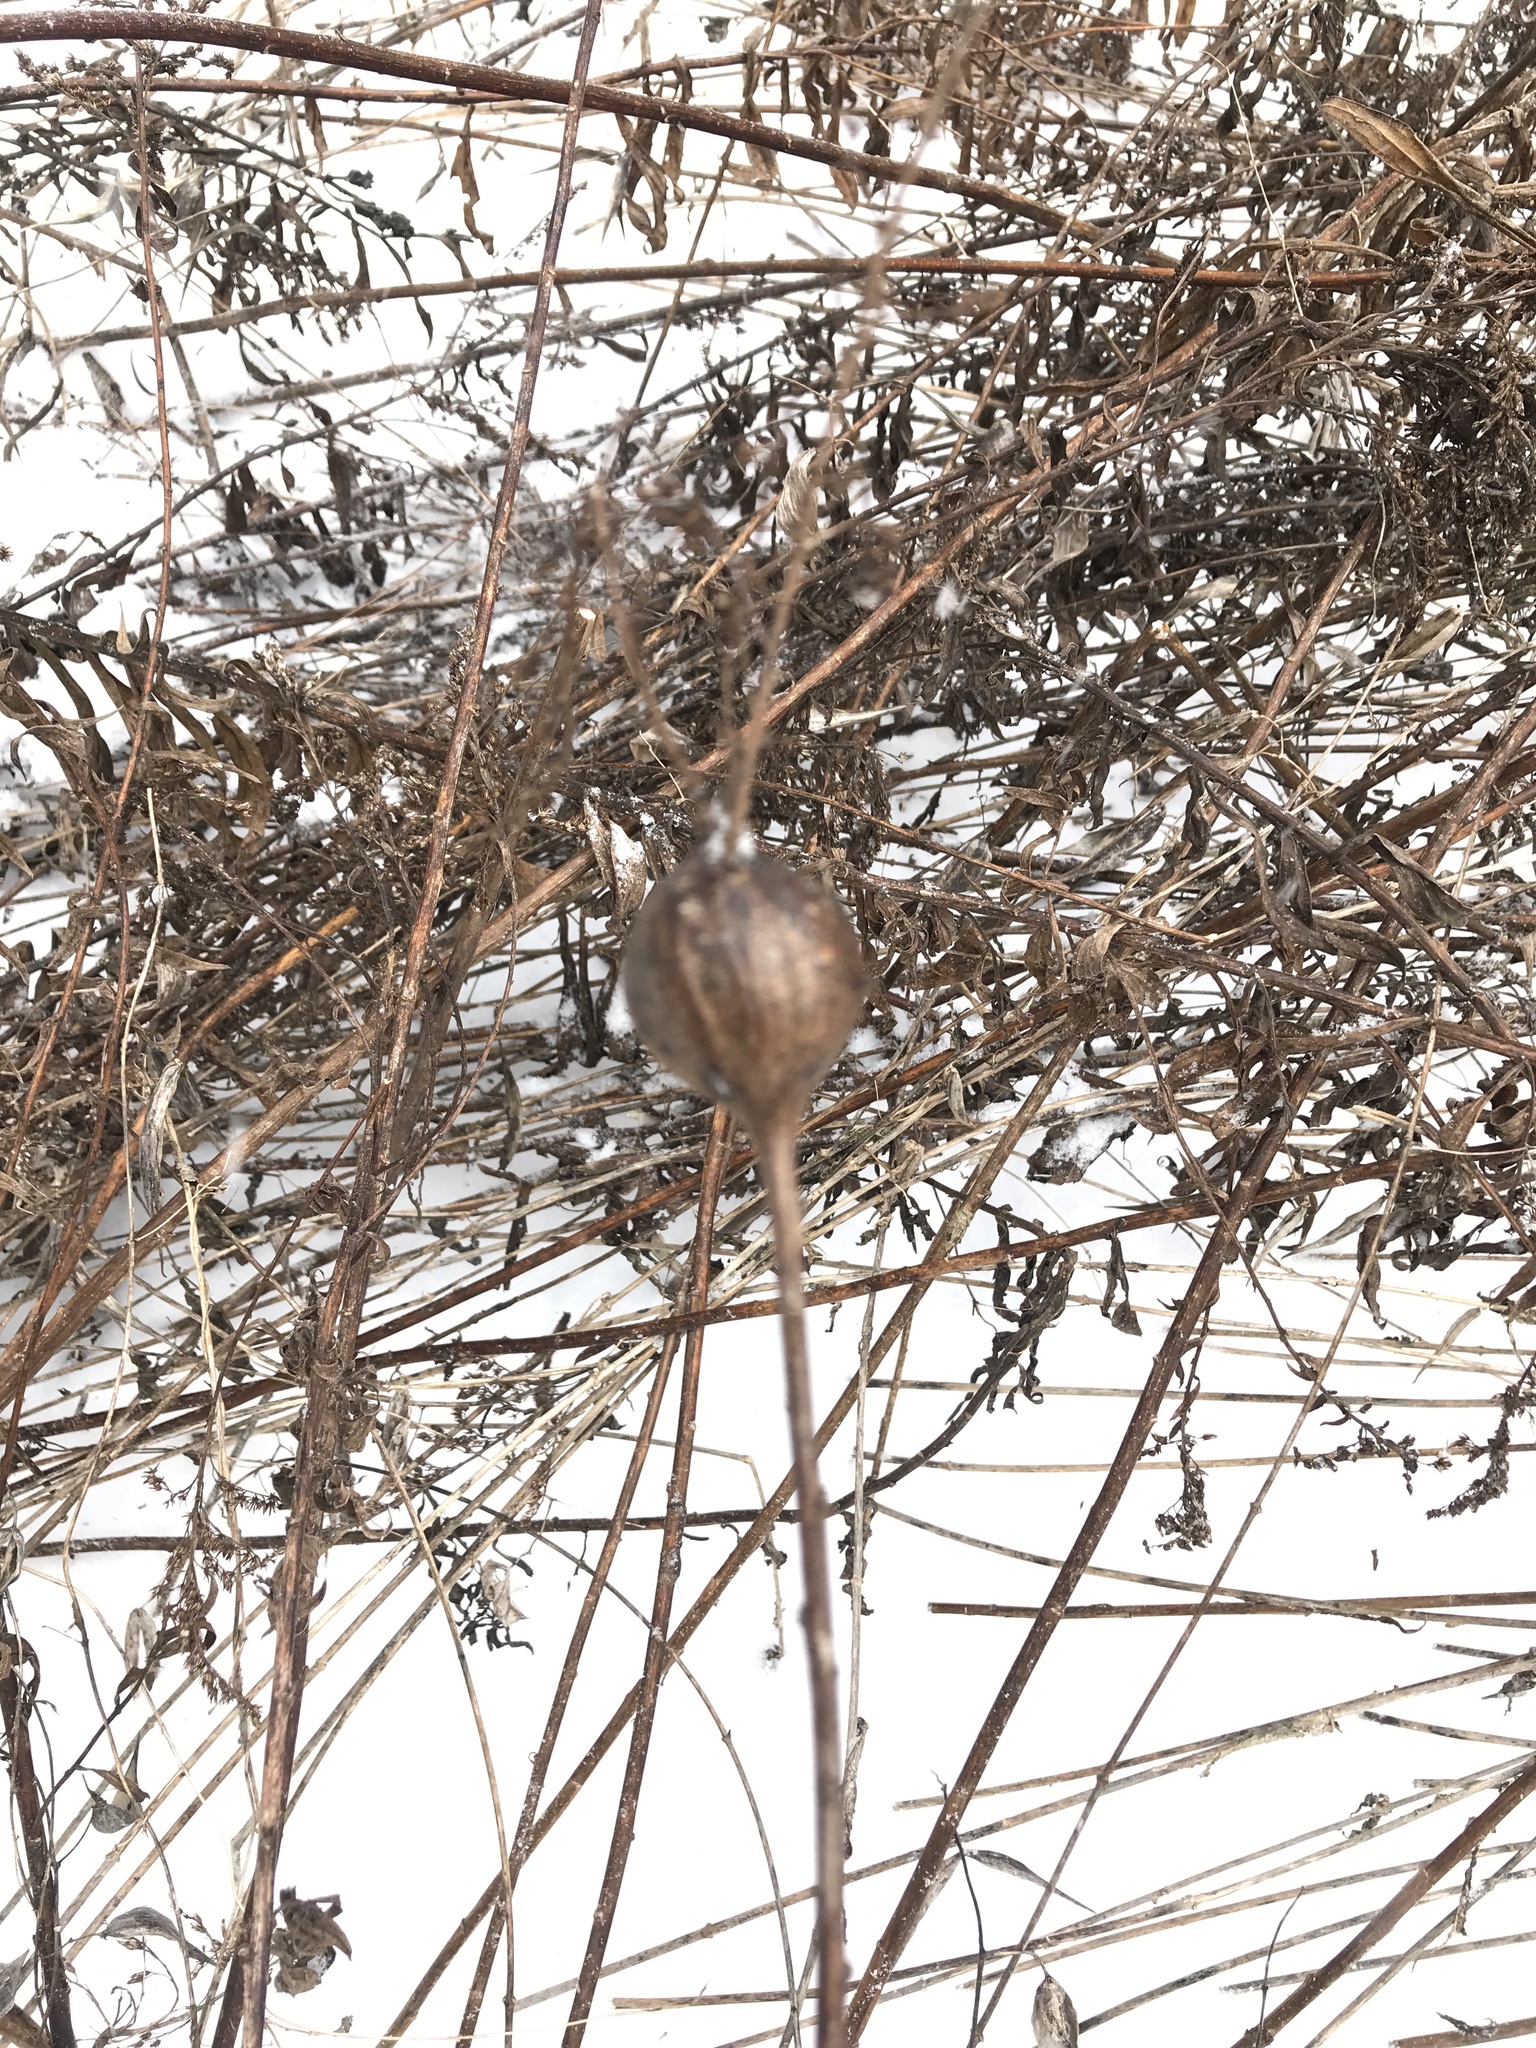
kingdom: Animalia
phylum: Arthropoda
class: Insecta
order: Diptera
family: Tephritidae
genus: Eurosta
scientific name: Eurosta solidaginis
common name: Goldenrod gall fly
